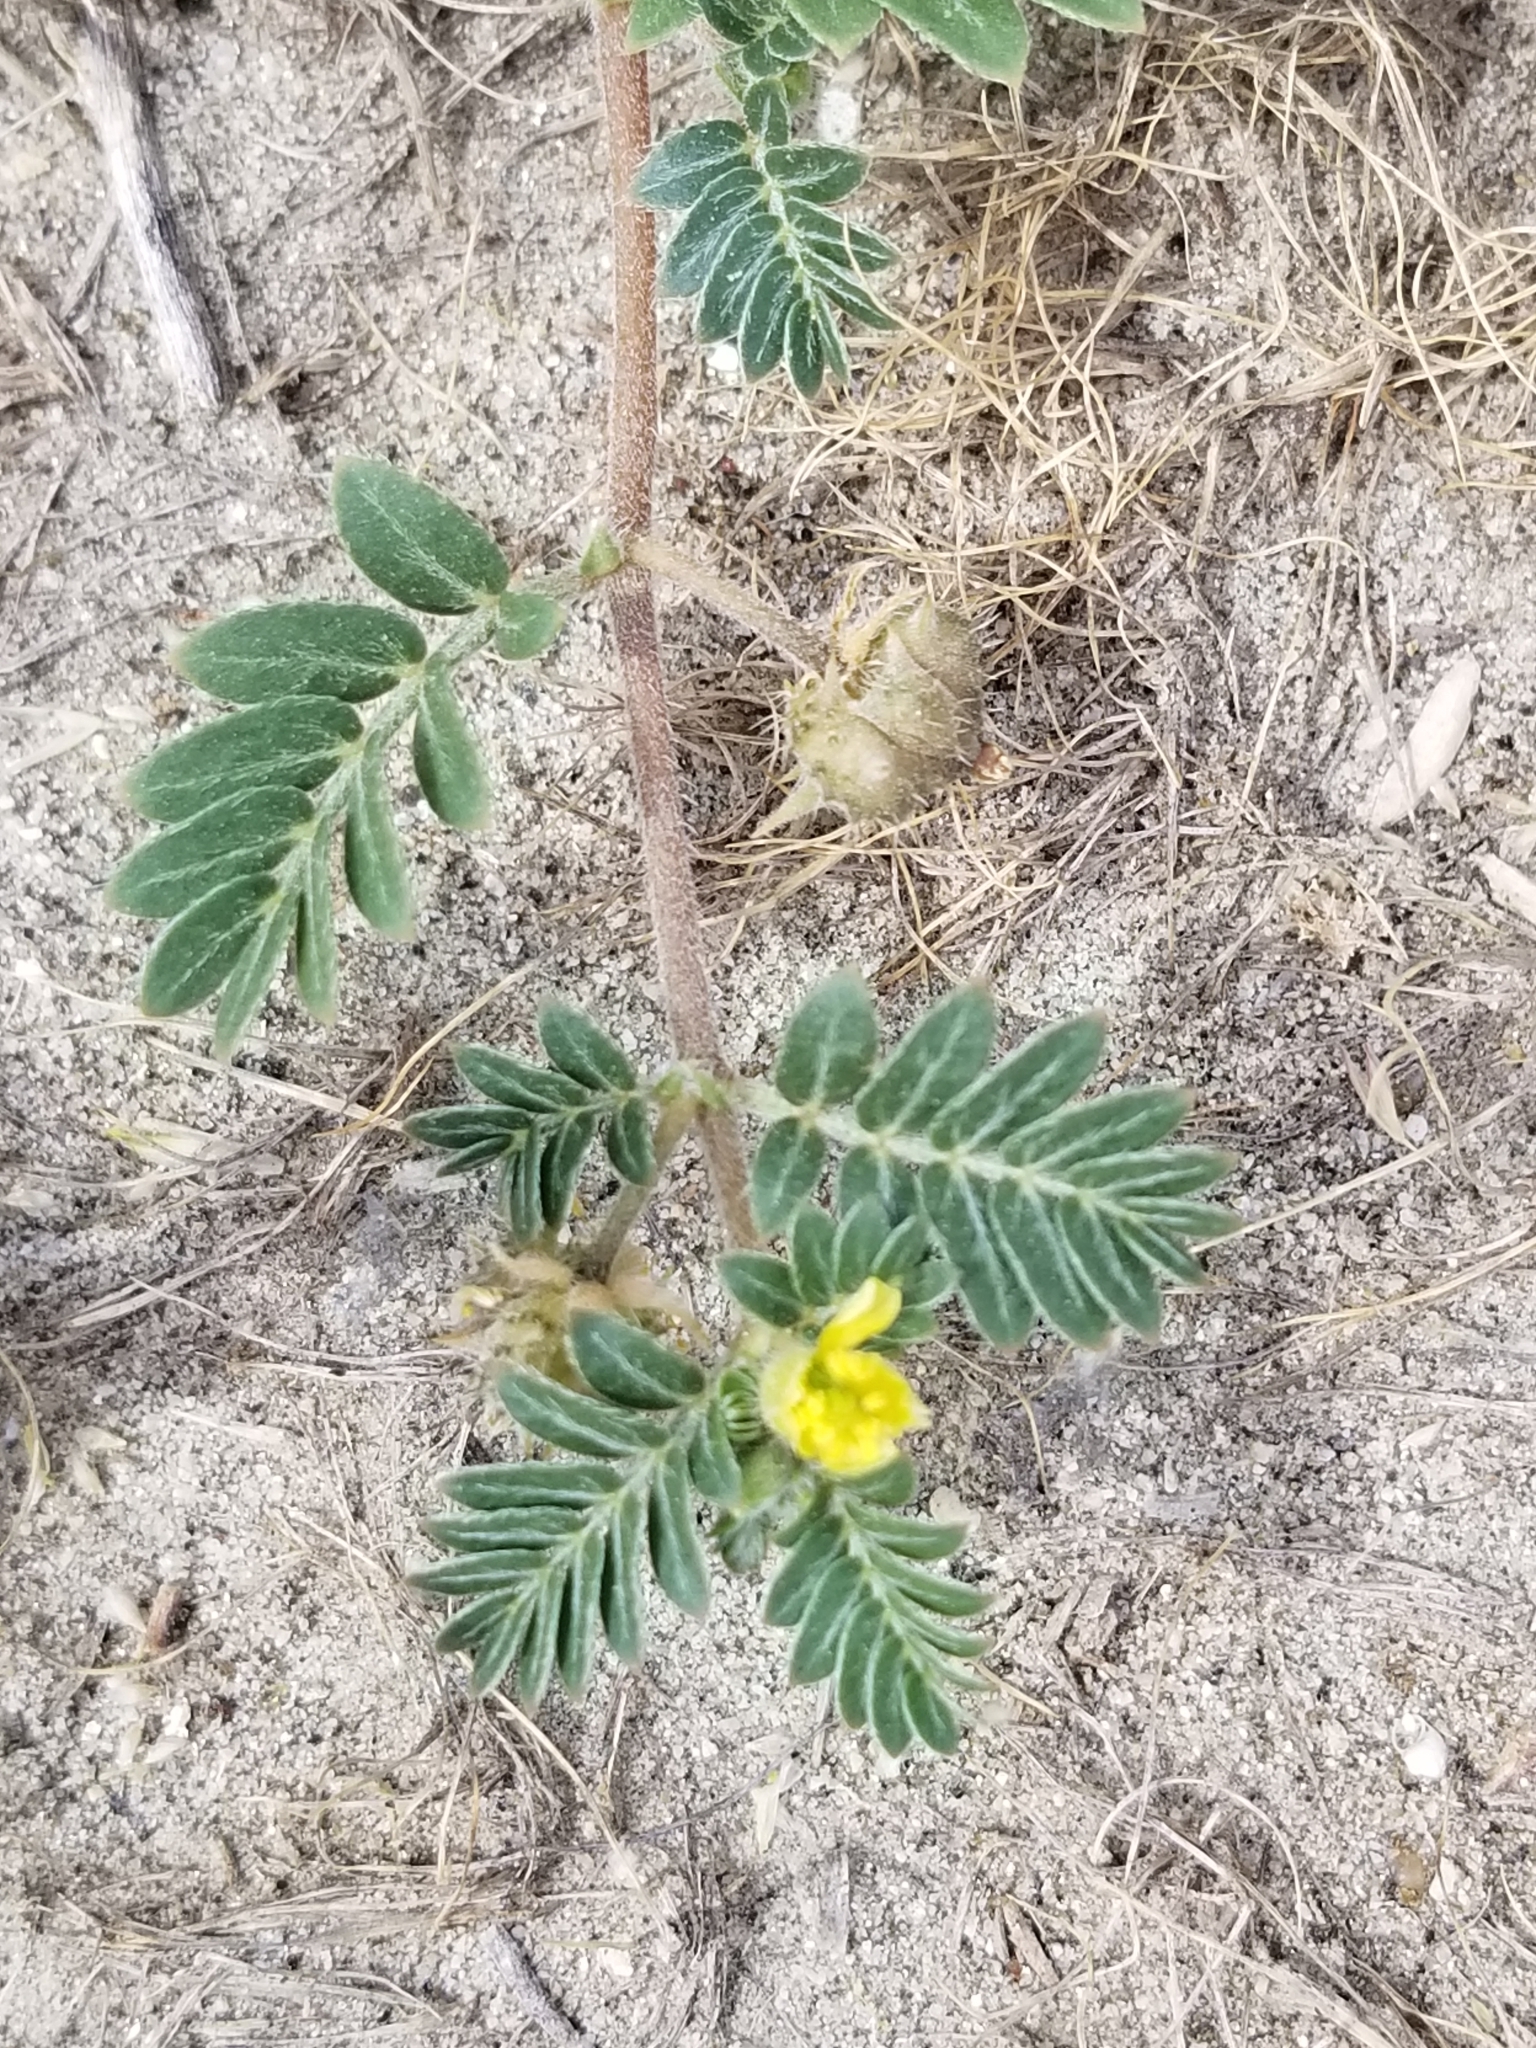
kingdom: Plantae
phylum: Tracheophyta
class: Magnoliopsida
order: Zygophyllales
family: Zygophyllaceae
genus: Tribulus
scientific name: Tribulus terrestris
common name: Puncturevine
